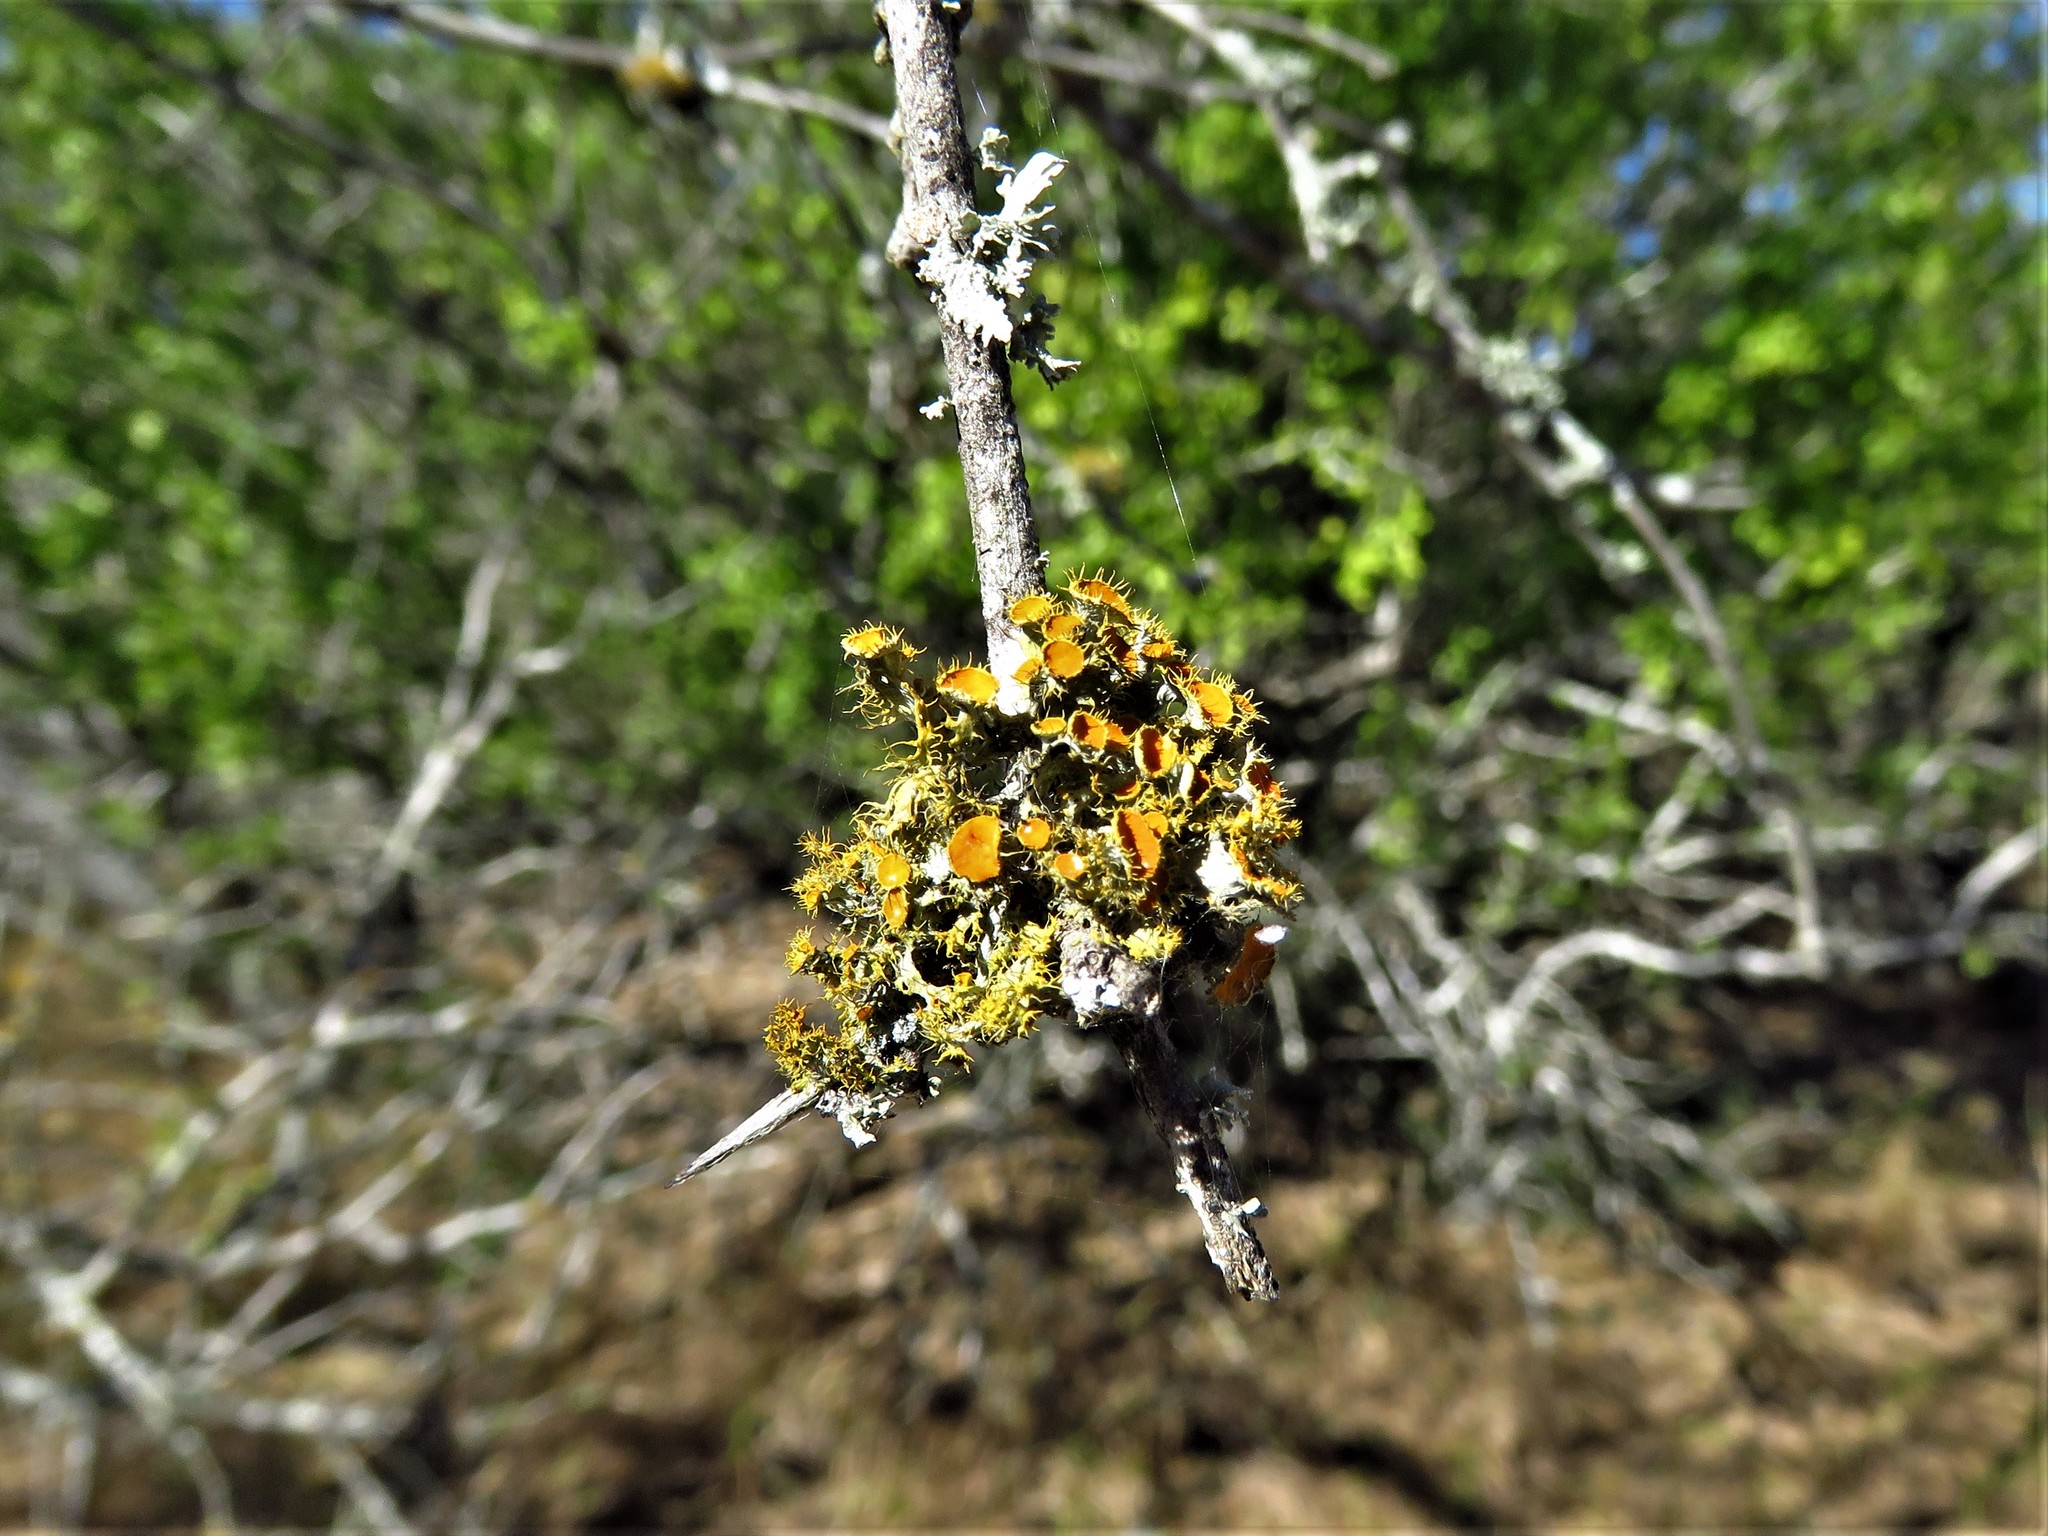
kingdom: Fungi
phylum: Ascomycota
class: Lecanoromycetes
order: Teloschistales
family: Teloschistaceae
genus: Niorma
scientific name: Niorma chrysophthalma
